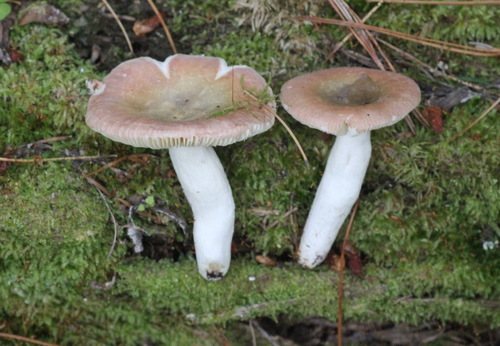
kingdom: Fungi
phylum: Basidiomycota
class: Agaricomycetes
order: Russulales
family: Russulaceae
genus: Russula
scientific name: Russula
